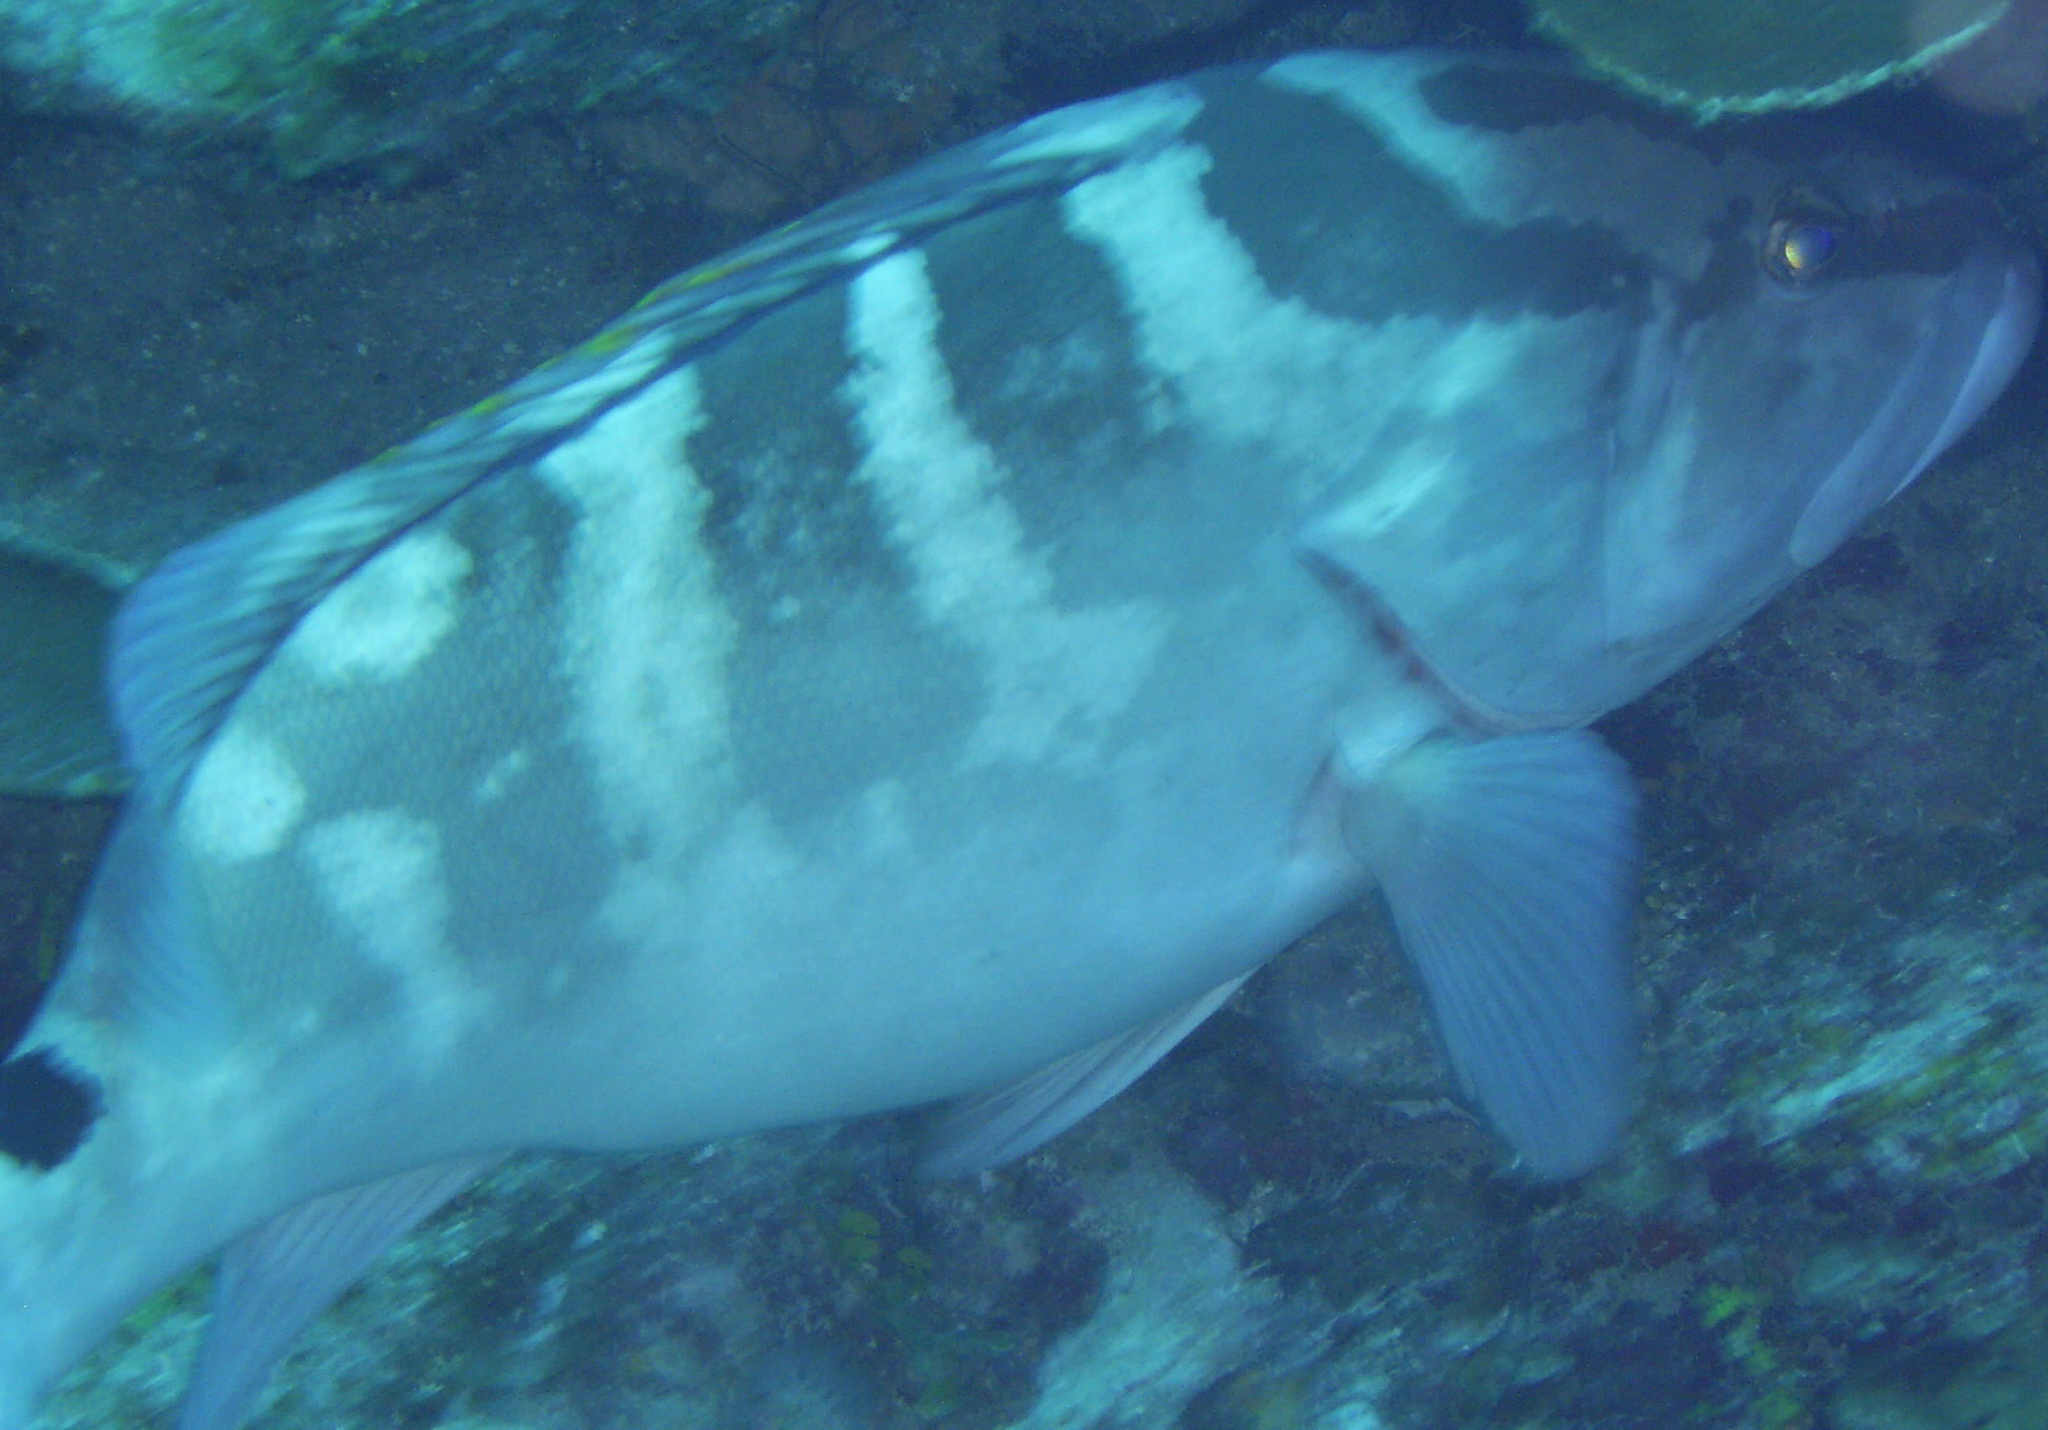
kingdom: Animalia
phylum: Chordata
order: Perciformes
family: Serranidae
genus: Epinephelus
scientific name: Epinephelus striatus
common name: Nassau grouper
